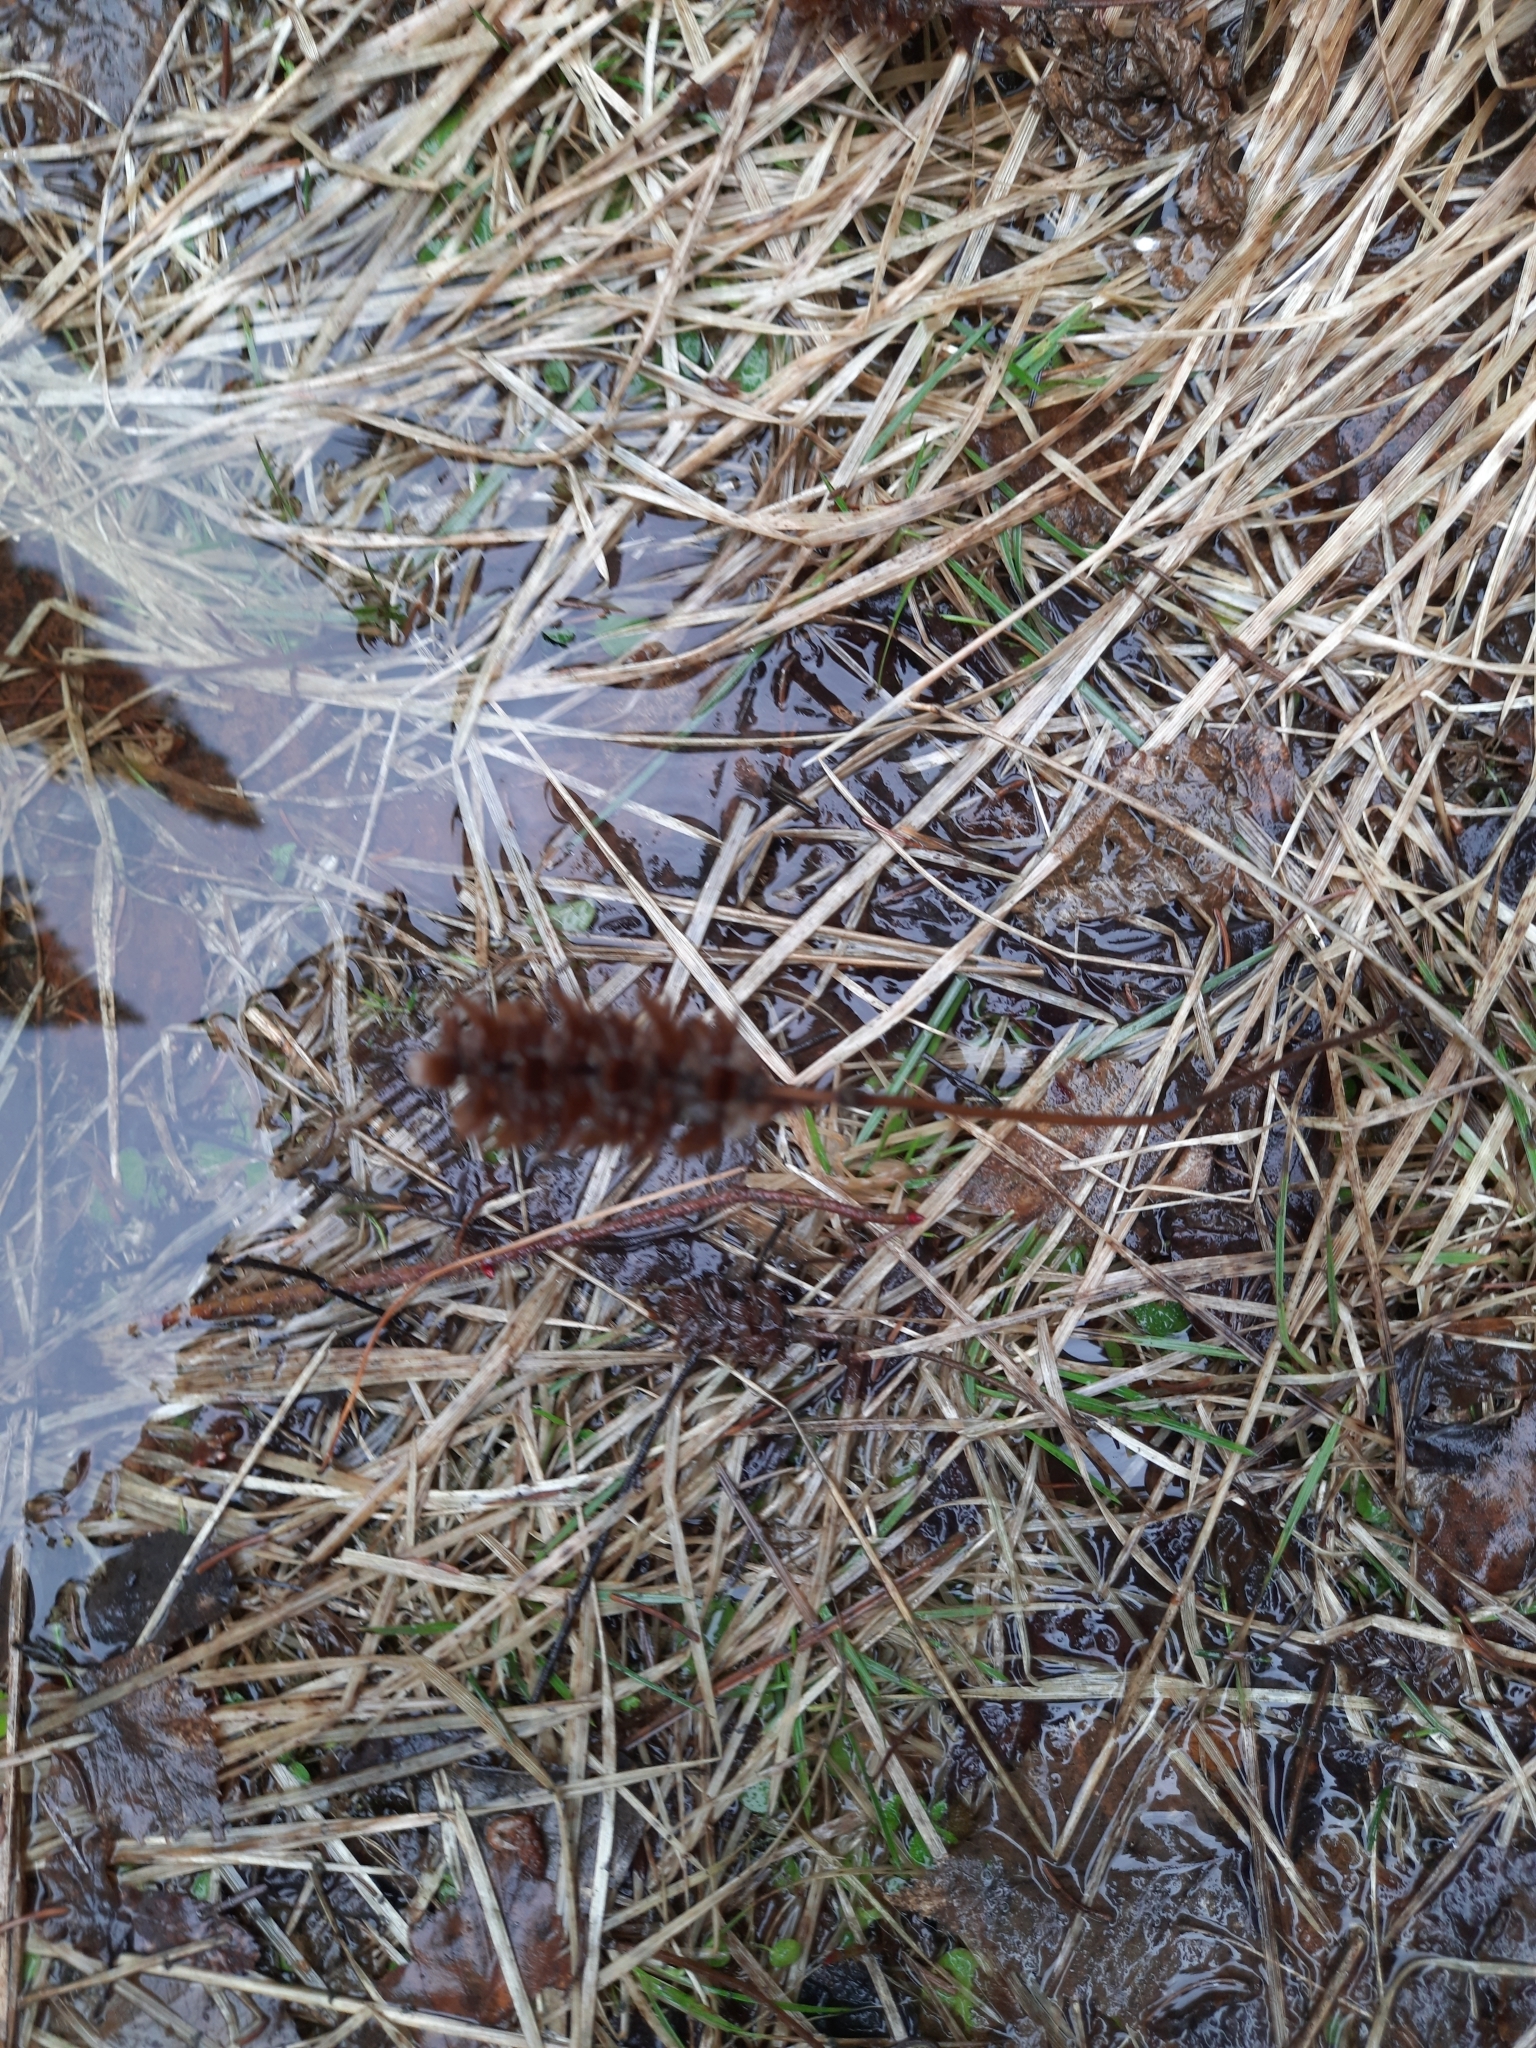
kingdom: Plantae
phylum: Tracheophyta
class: Magnoliopsida
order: Lamiales
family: Lamiaceae
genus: Prunella
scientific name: Prunella vulgaris
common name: Heal-all
